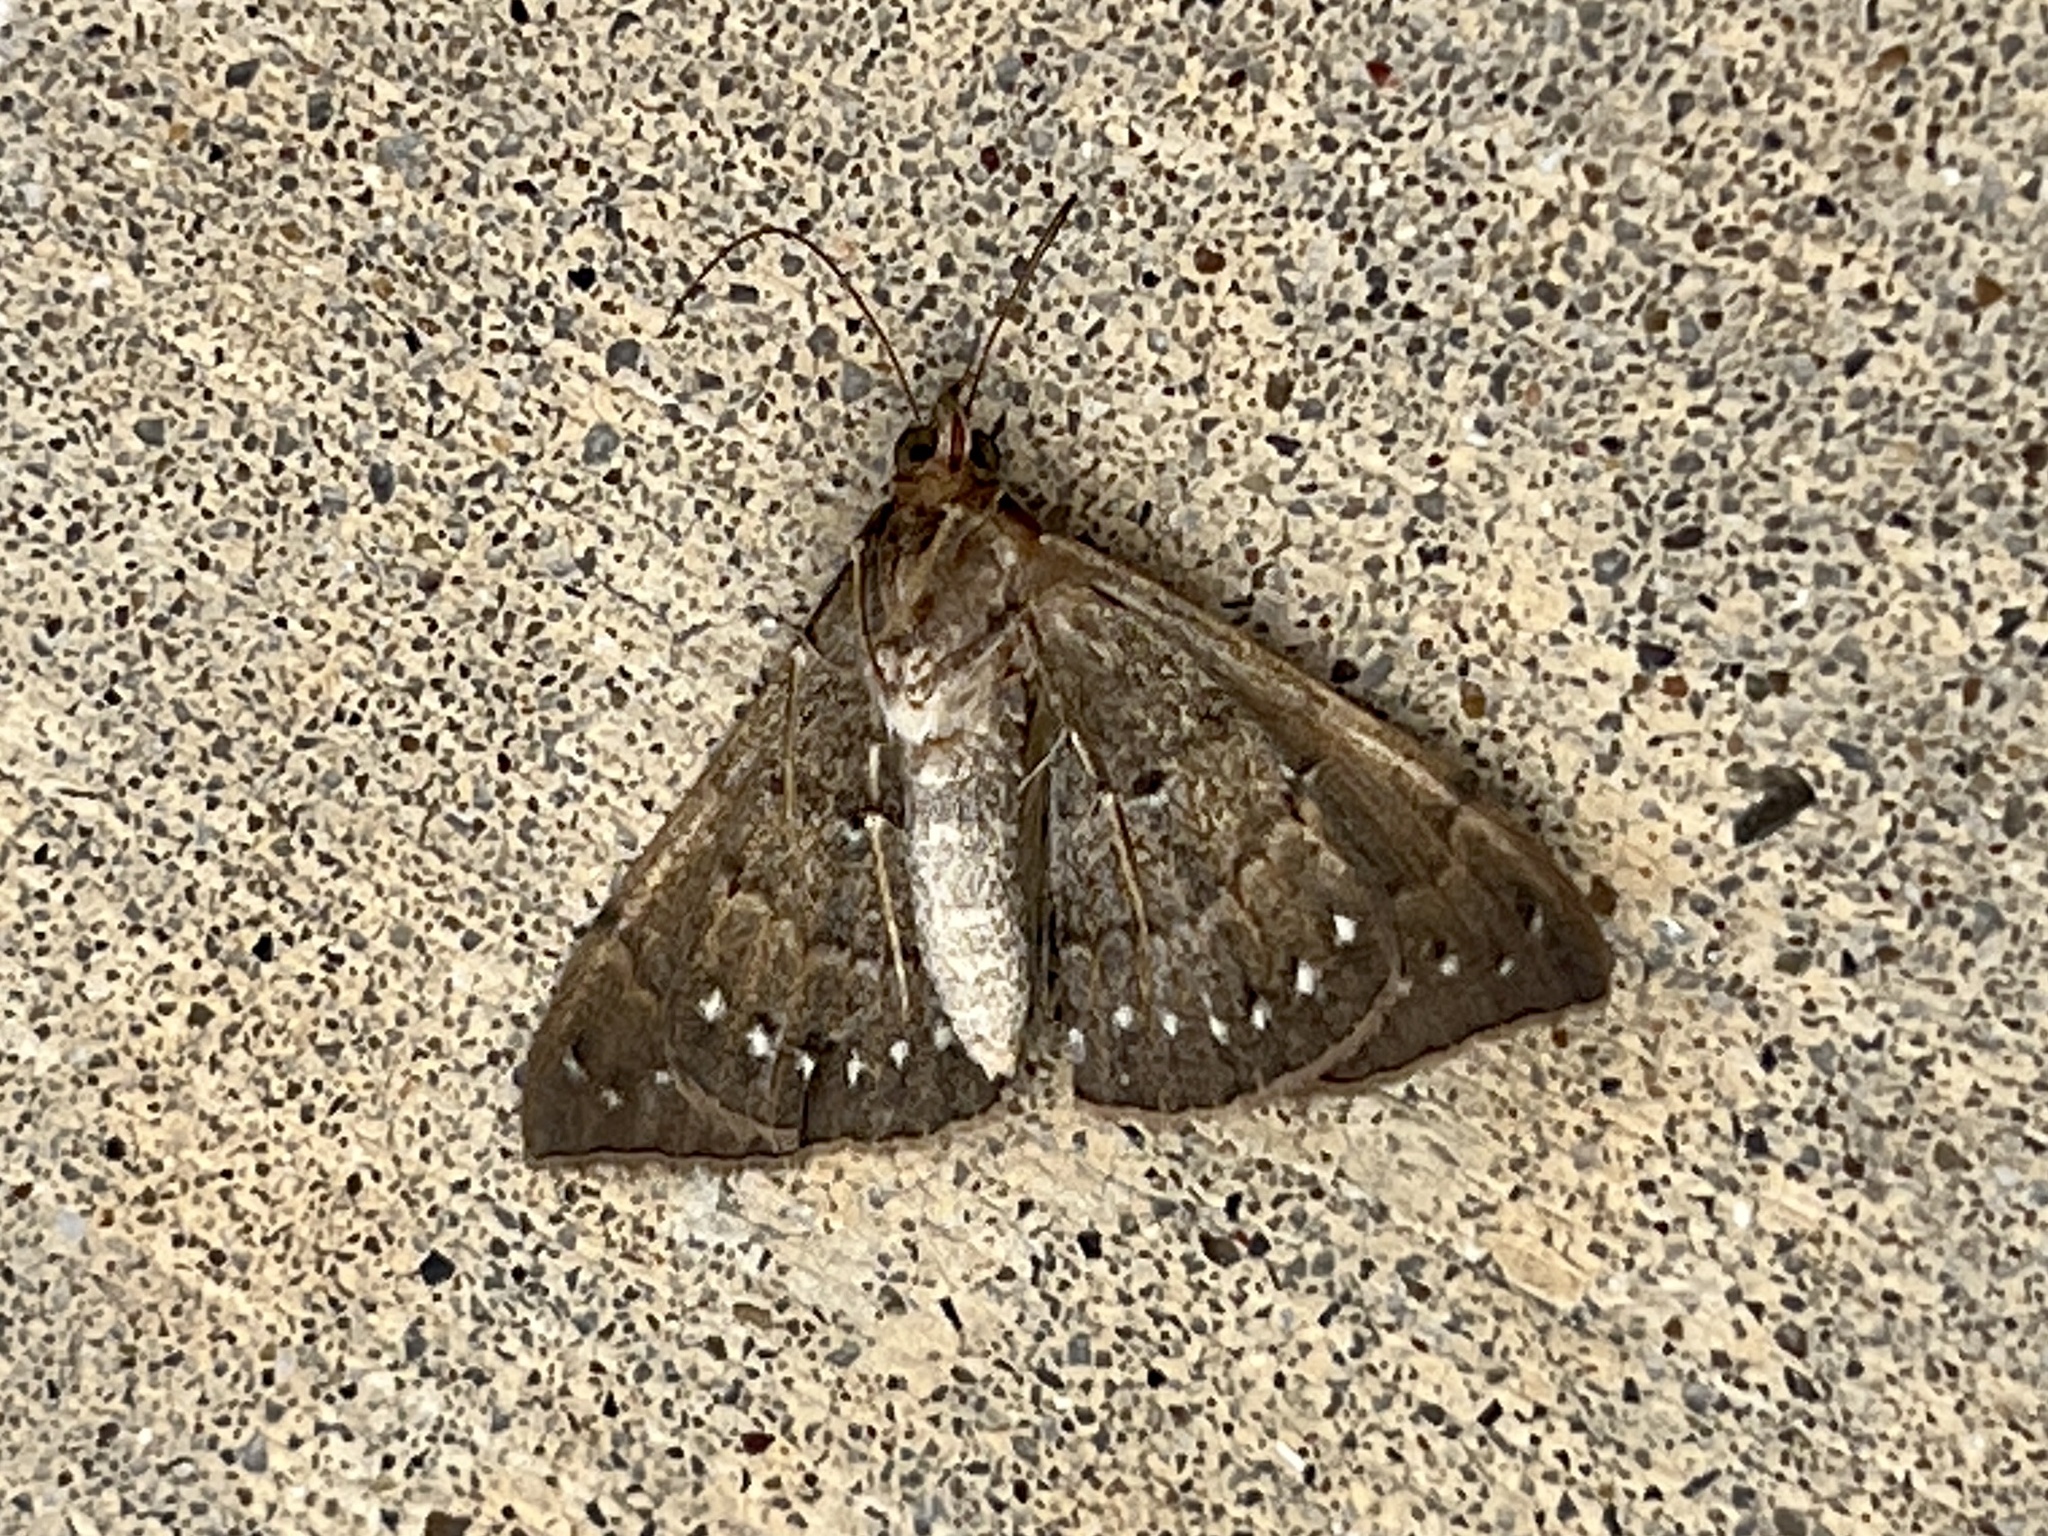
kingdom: Animalia
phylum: Arthropoda
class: Insecta
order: Lepidoptera
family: Erebidae
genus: Focillidia
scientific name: Focillidia texana
